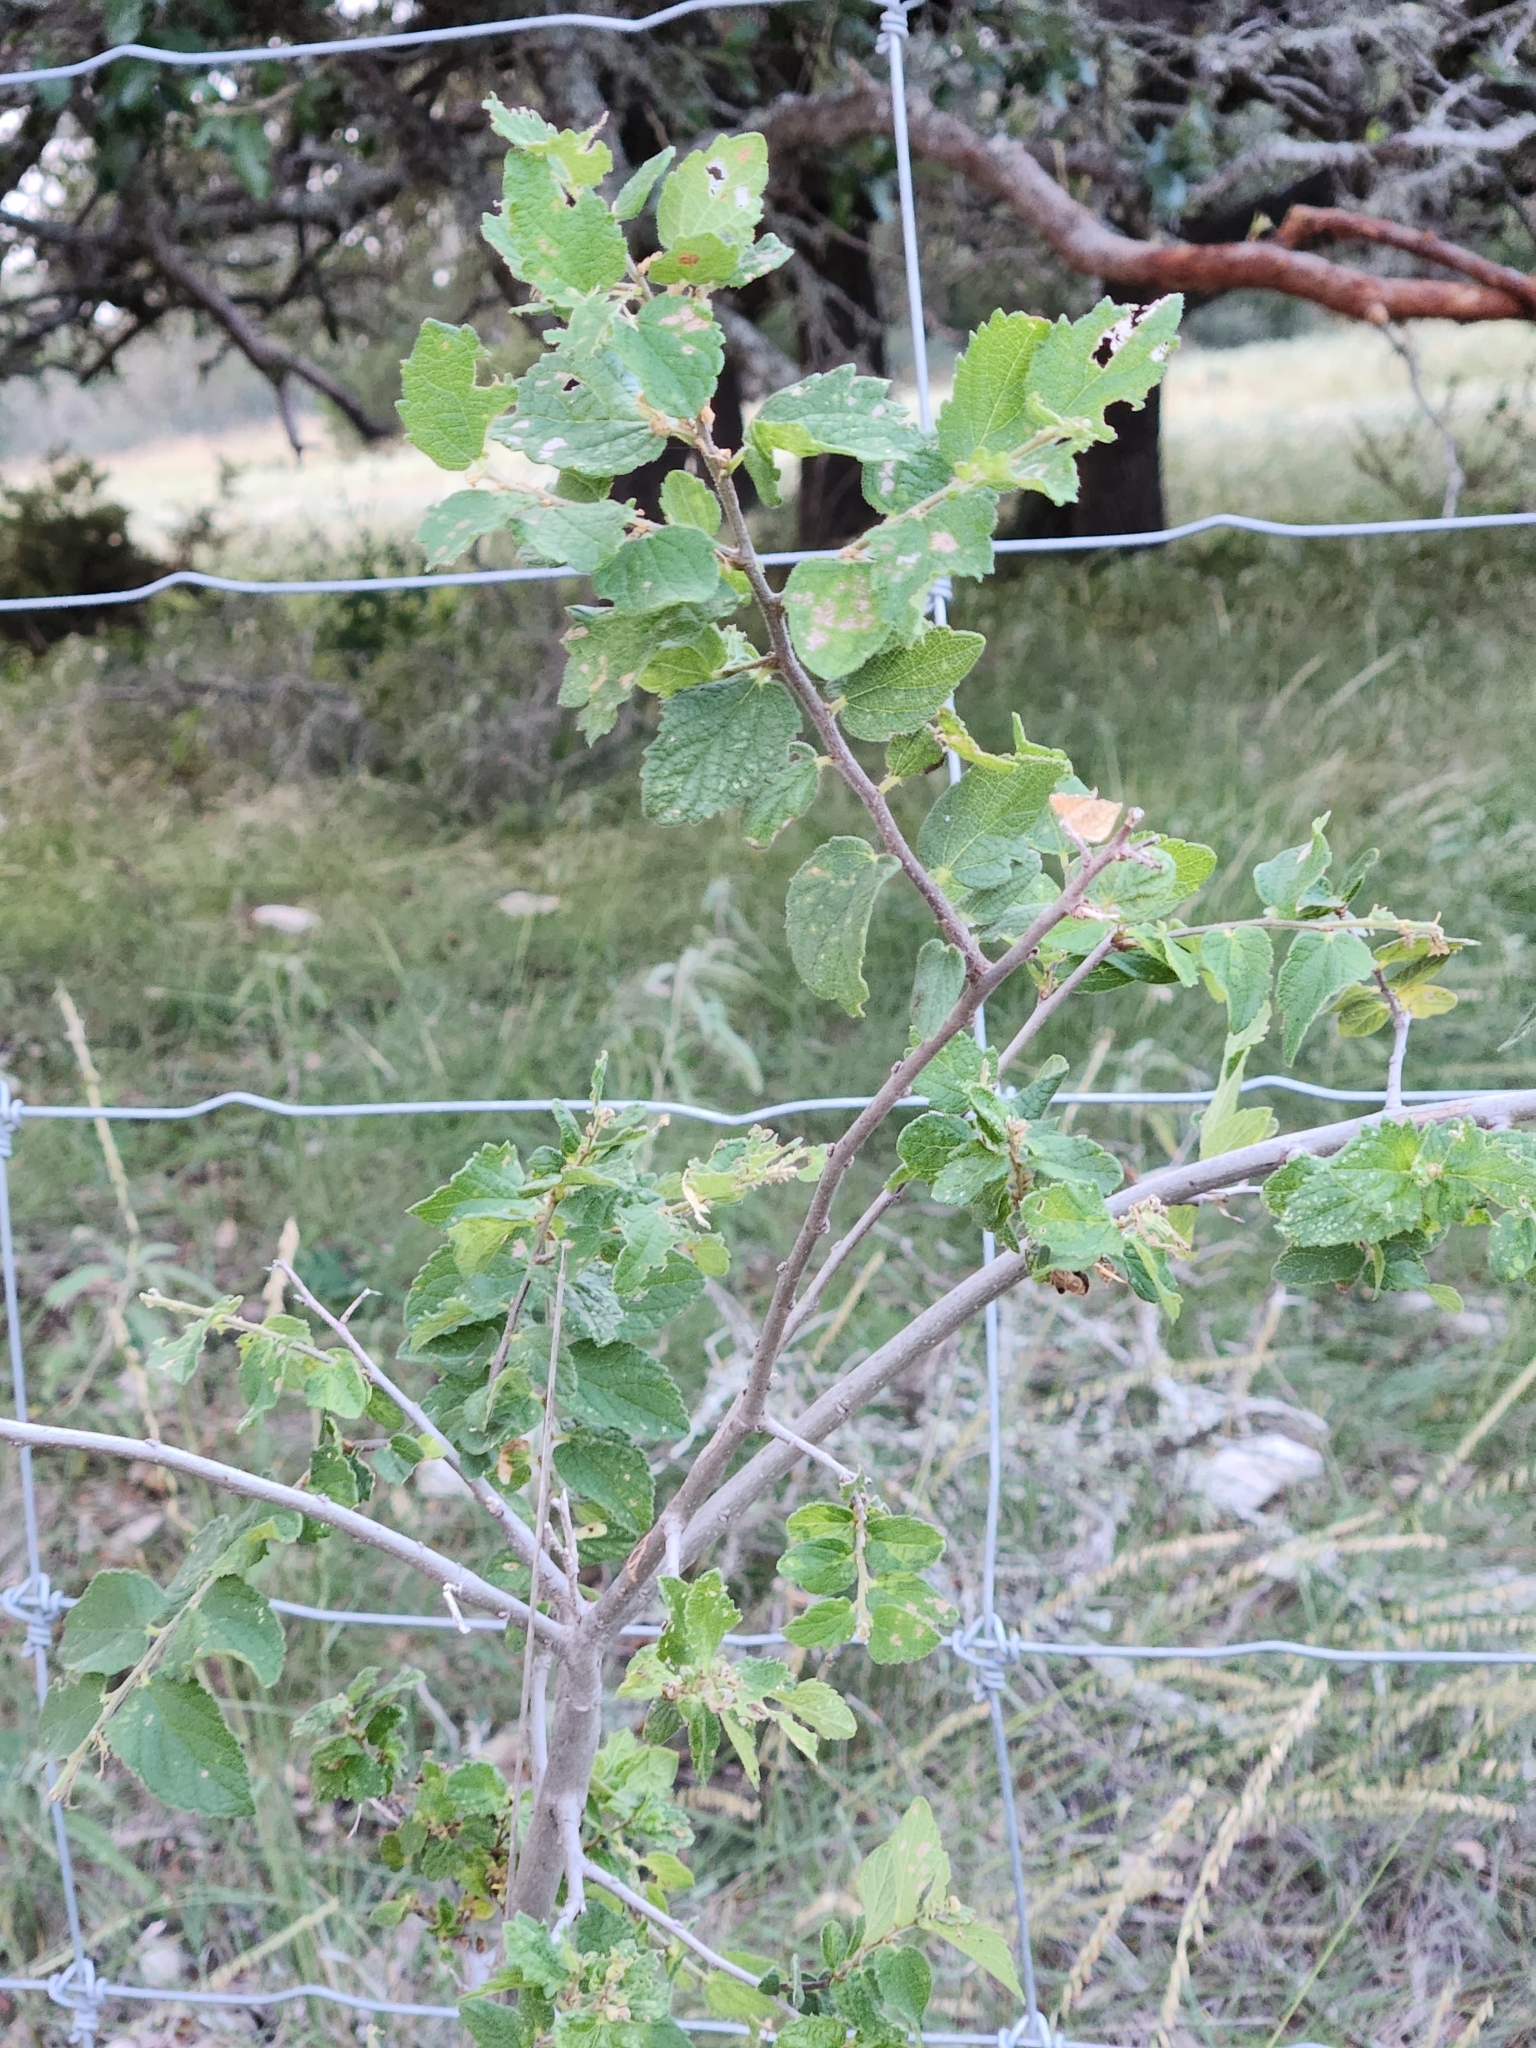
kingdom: Plantae
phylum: Tracheophyta
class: Magnoliopsida
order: Rosales
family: Cannabaceae
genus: Celtis
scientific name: Celtis reticulata
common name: Netleaf hackberry
